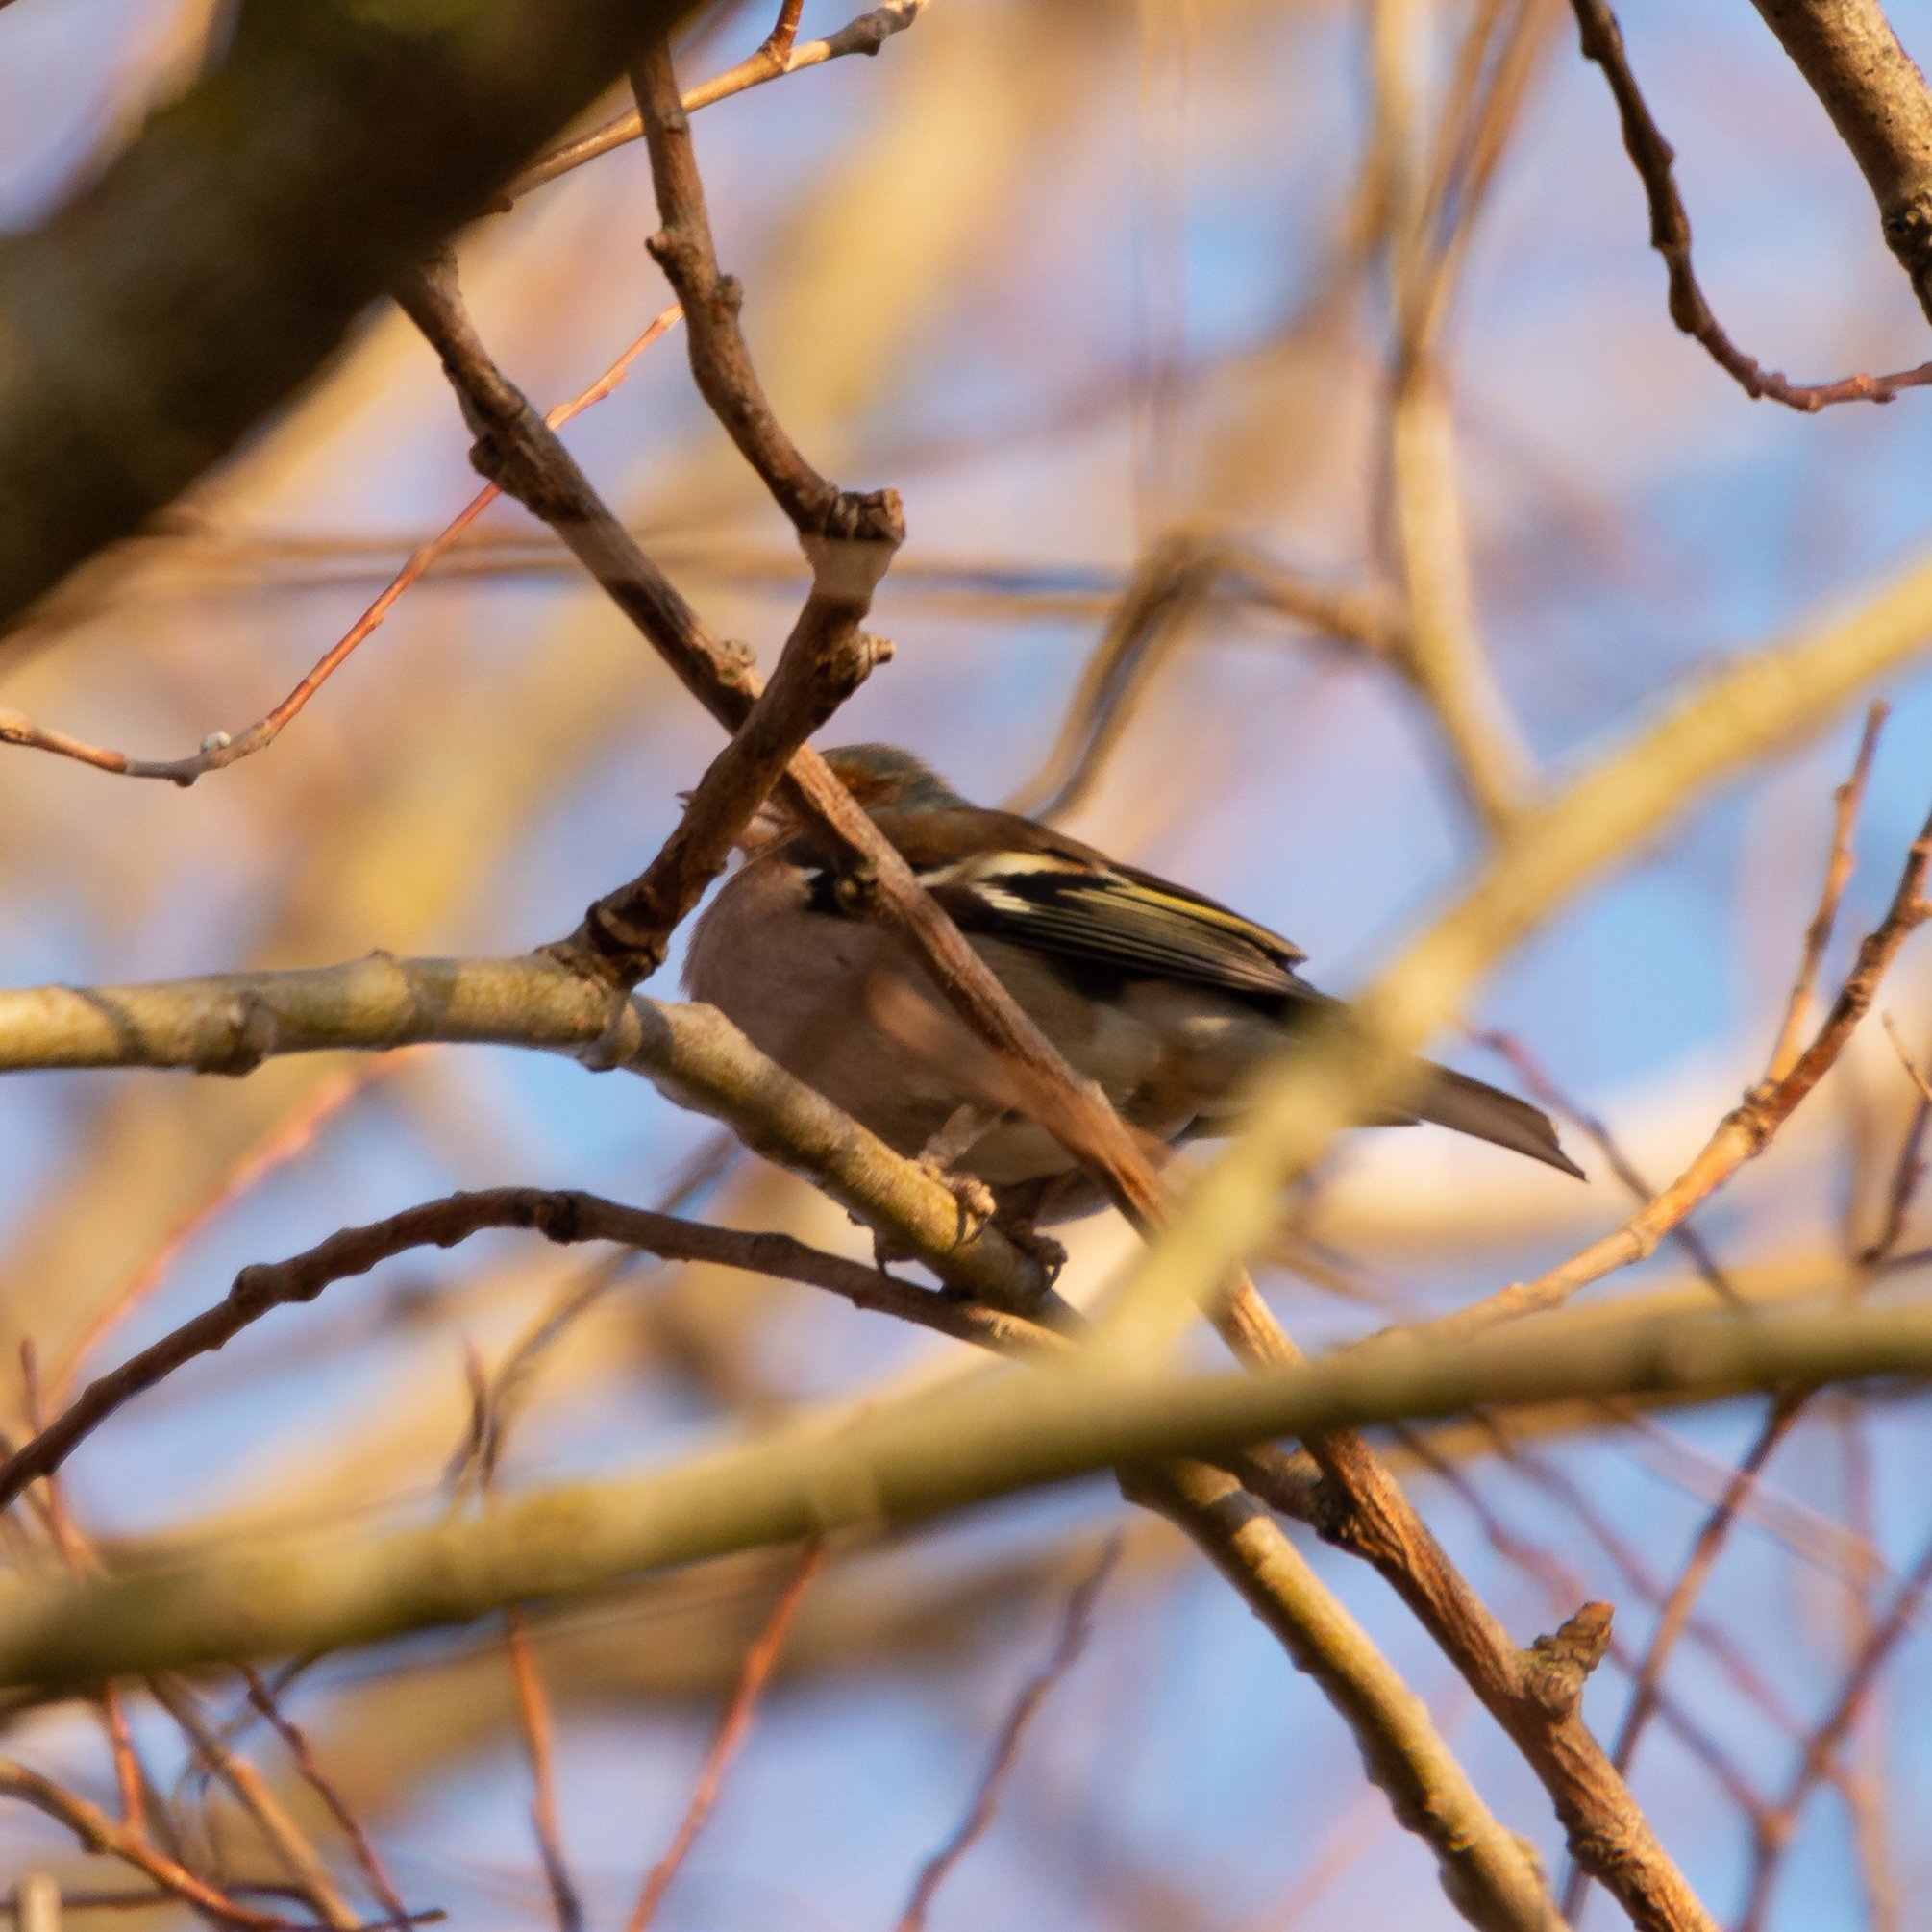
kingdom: Animalia
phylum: Chordata
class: Aves
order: Passeriformes
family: Fringillidae
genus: Fringilla
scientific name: Fringilla coelebs
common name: Common chaffinch
